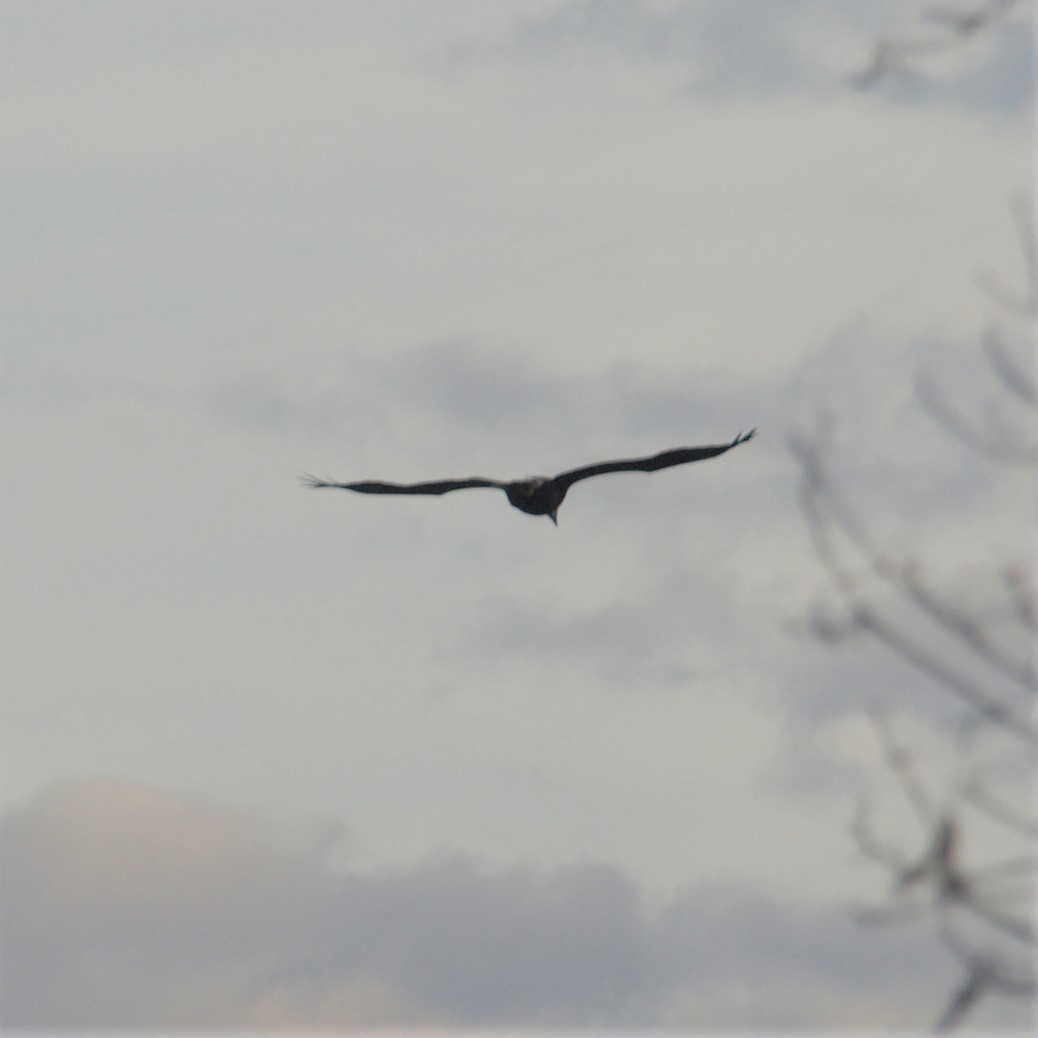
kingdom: Animalia
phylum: Chordata
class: Aves
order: Accipitriformes
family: Accipitridae
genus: Haliaeetus
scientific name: Haliaeetus leucocephalus
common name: Bald eagle
